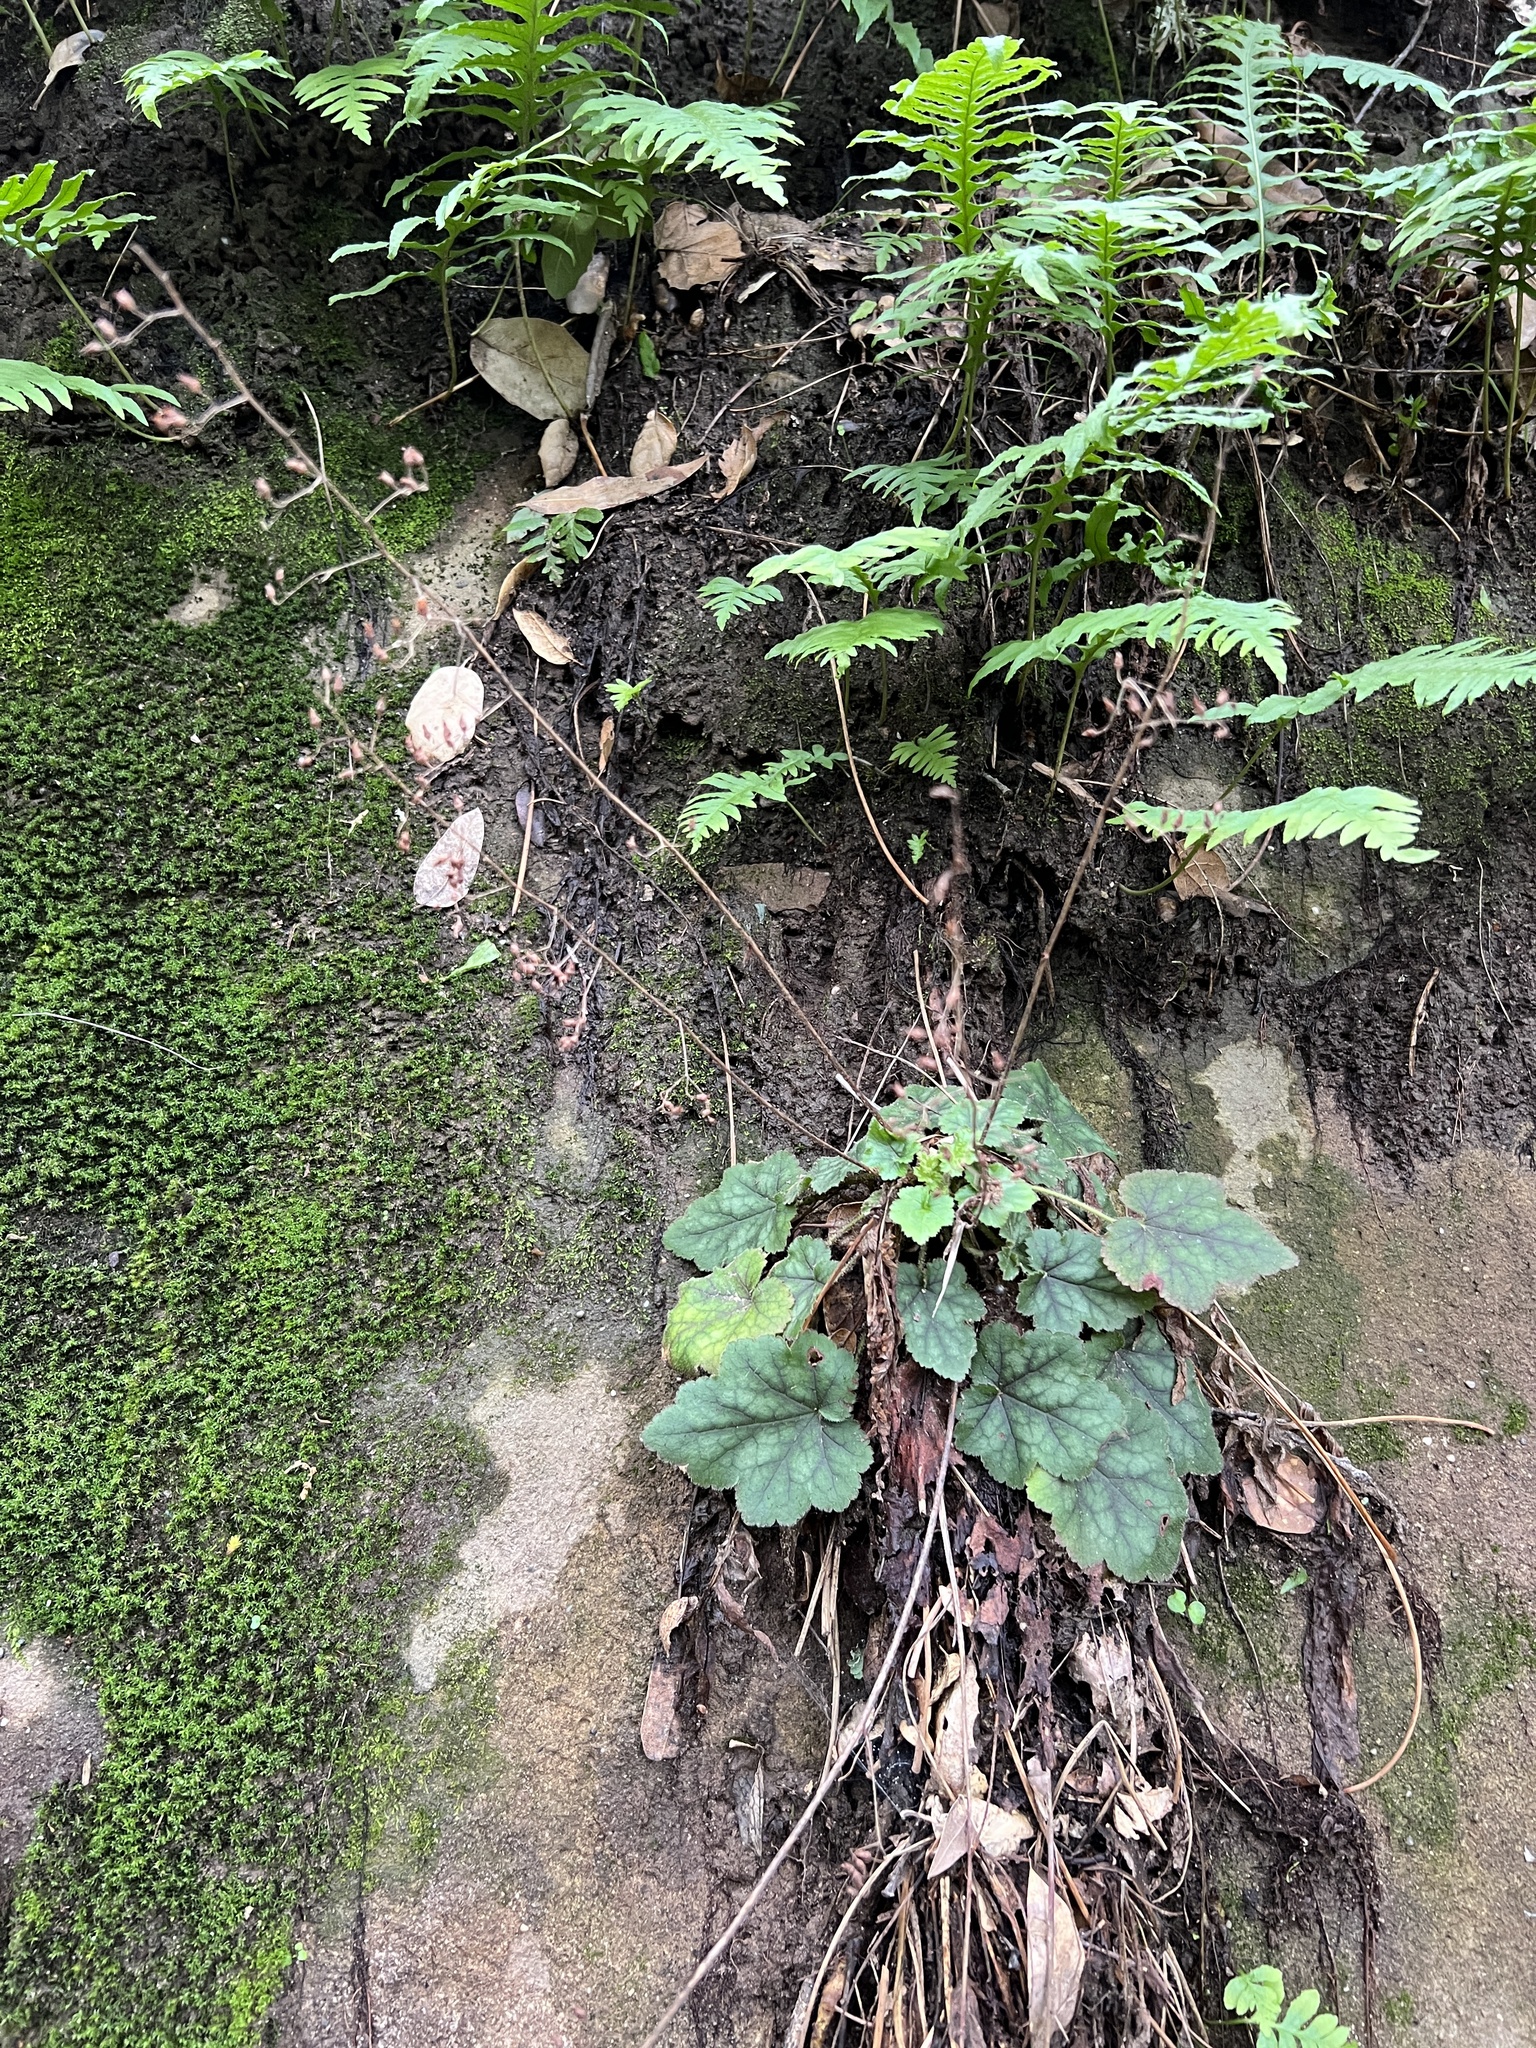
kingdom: Plantae
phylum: Tracheophyta
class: Magnoliopsida
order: Saxifragales
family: Saxifragaceae
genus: Heuchera
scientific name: Heuchera micrantha
